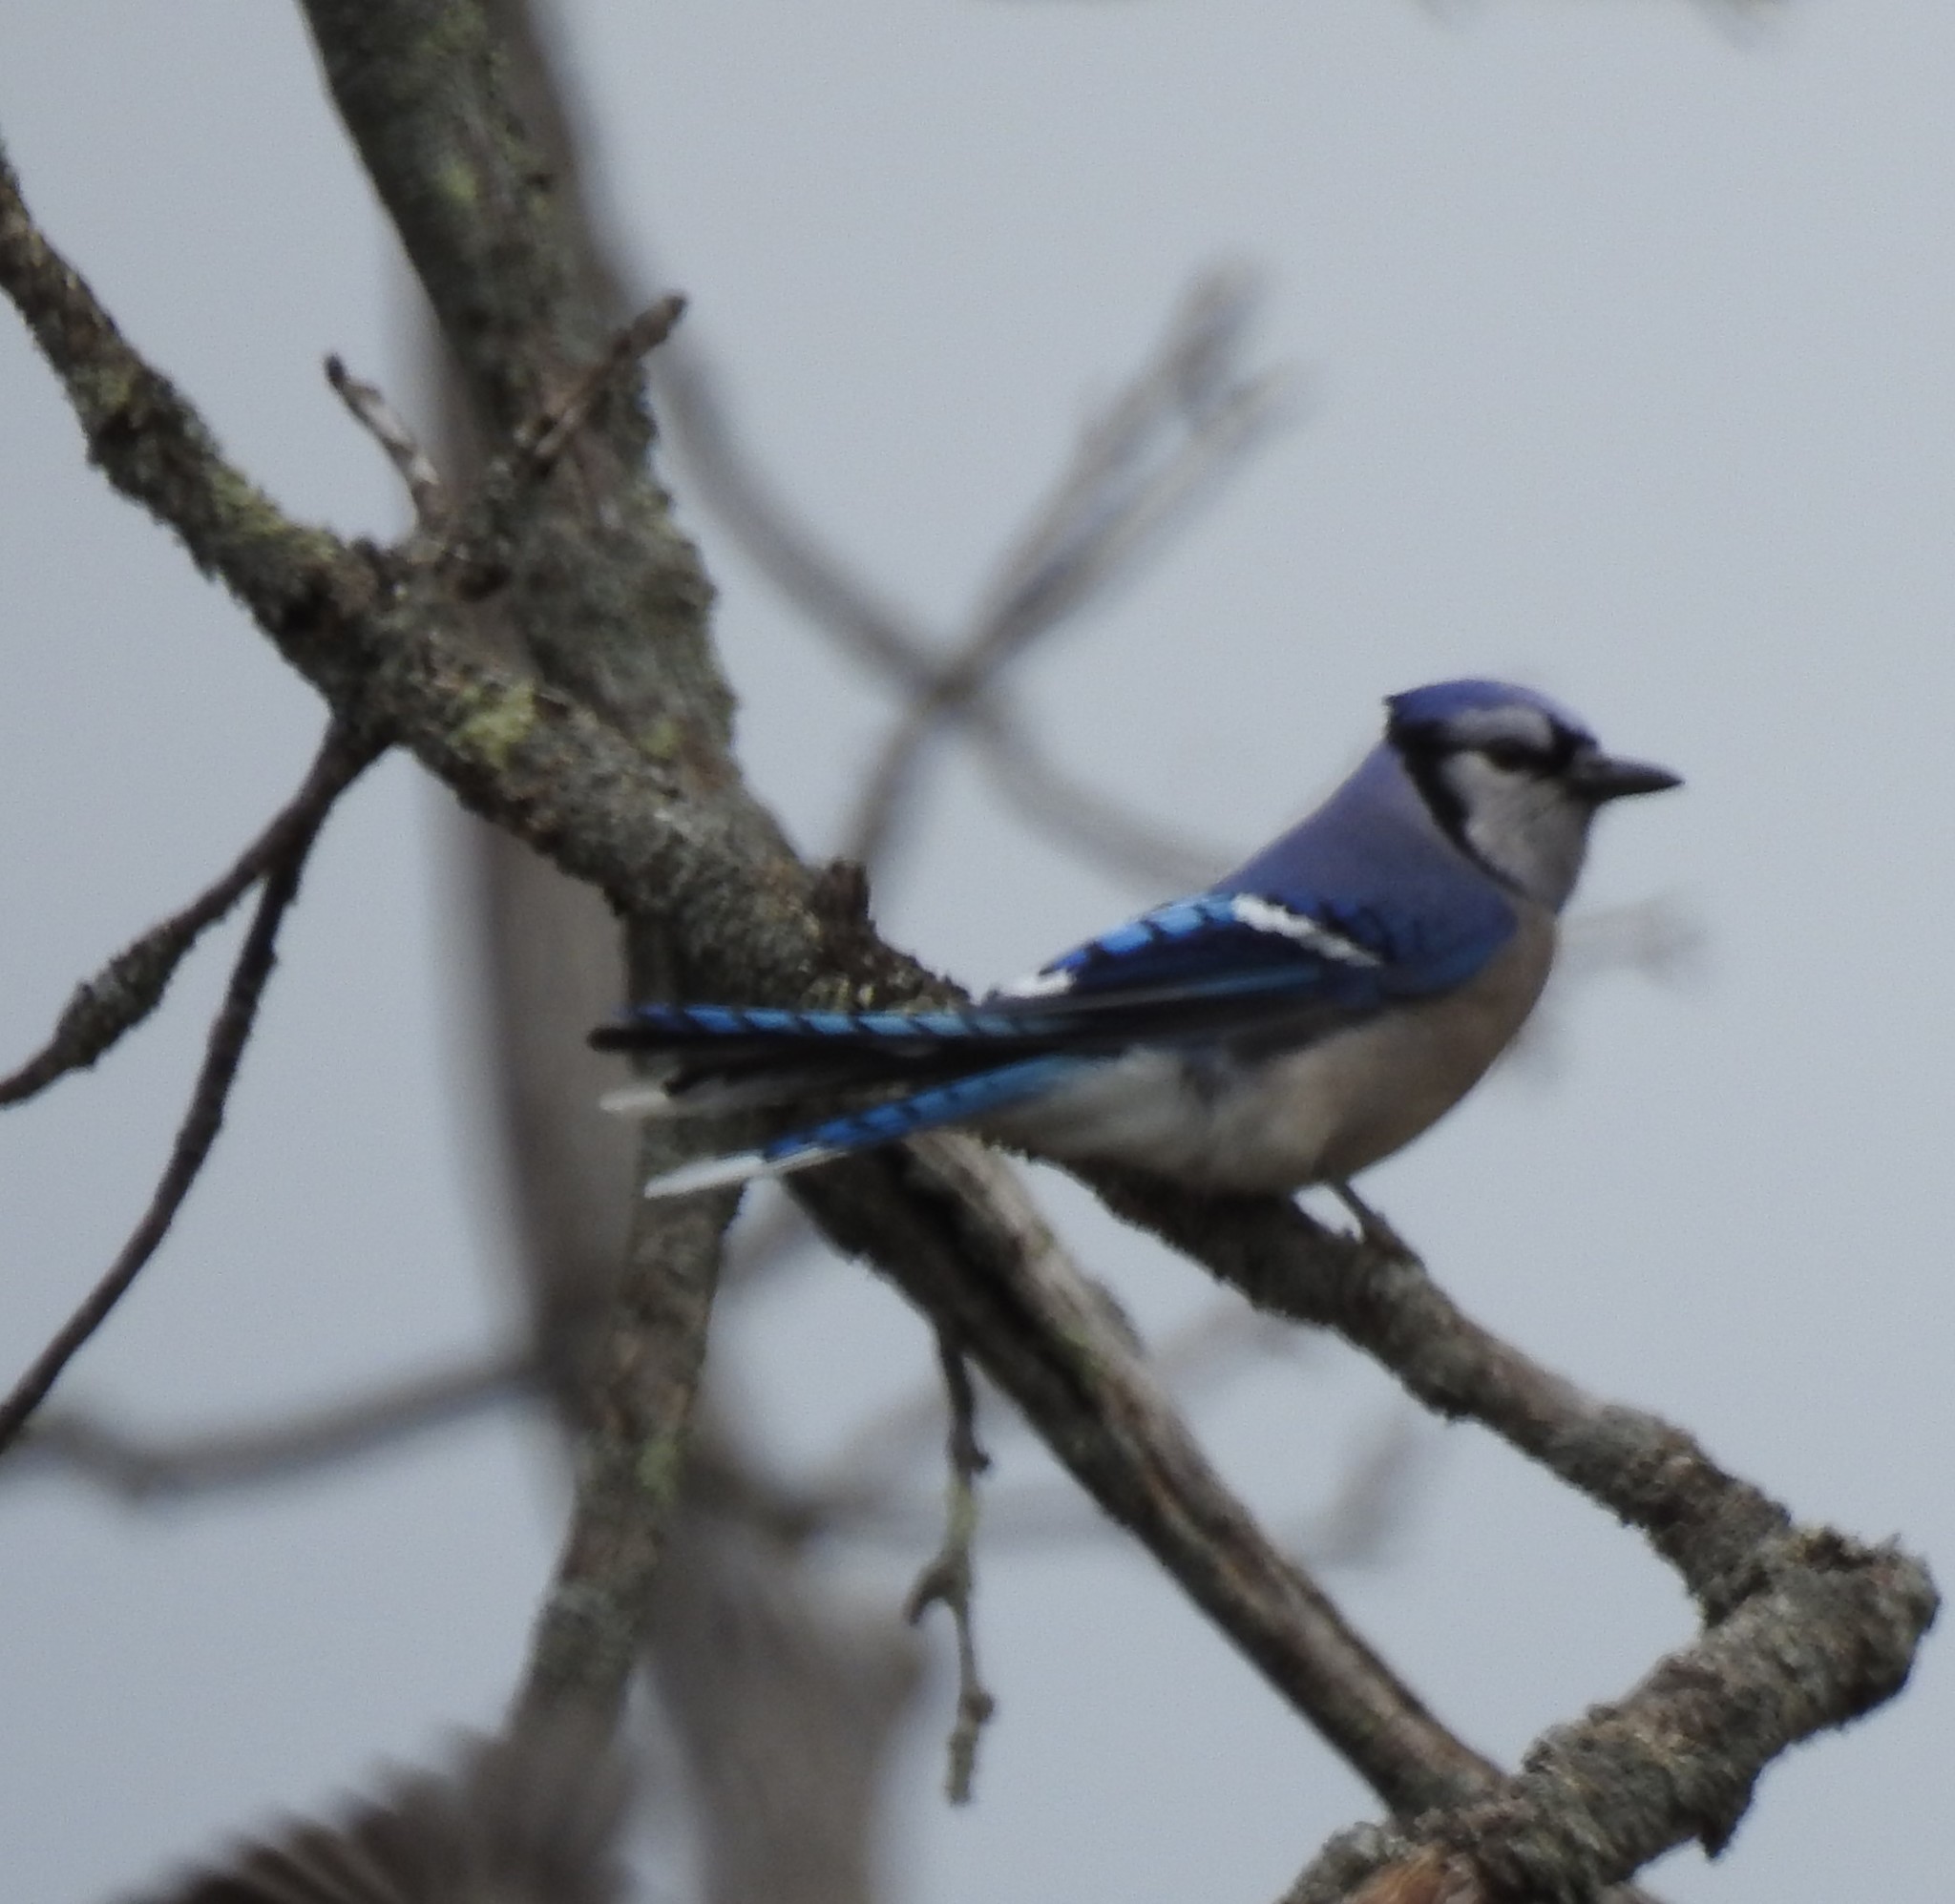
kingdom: Animalia
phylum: Chordata
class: Aves
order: Passeriformes
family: Corvidae
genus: Cyanocitta
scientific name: Cyanocitta cristata
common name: Blue jay
